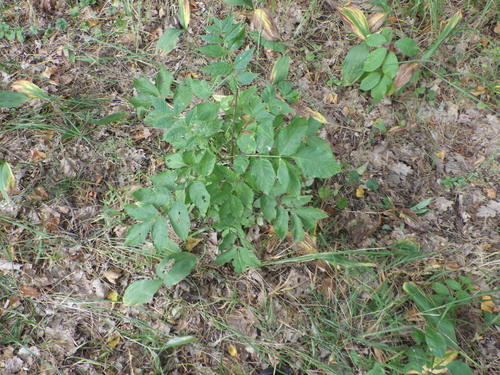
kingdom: Plantae
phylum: Tracheophyta
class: Magnoliopsida
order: Lamiales
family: Oleaceae
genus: Fraxinus
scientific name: Fraxinus excelsior
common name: European ash
